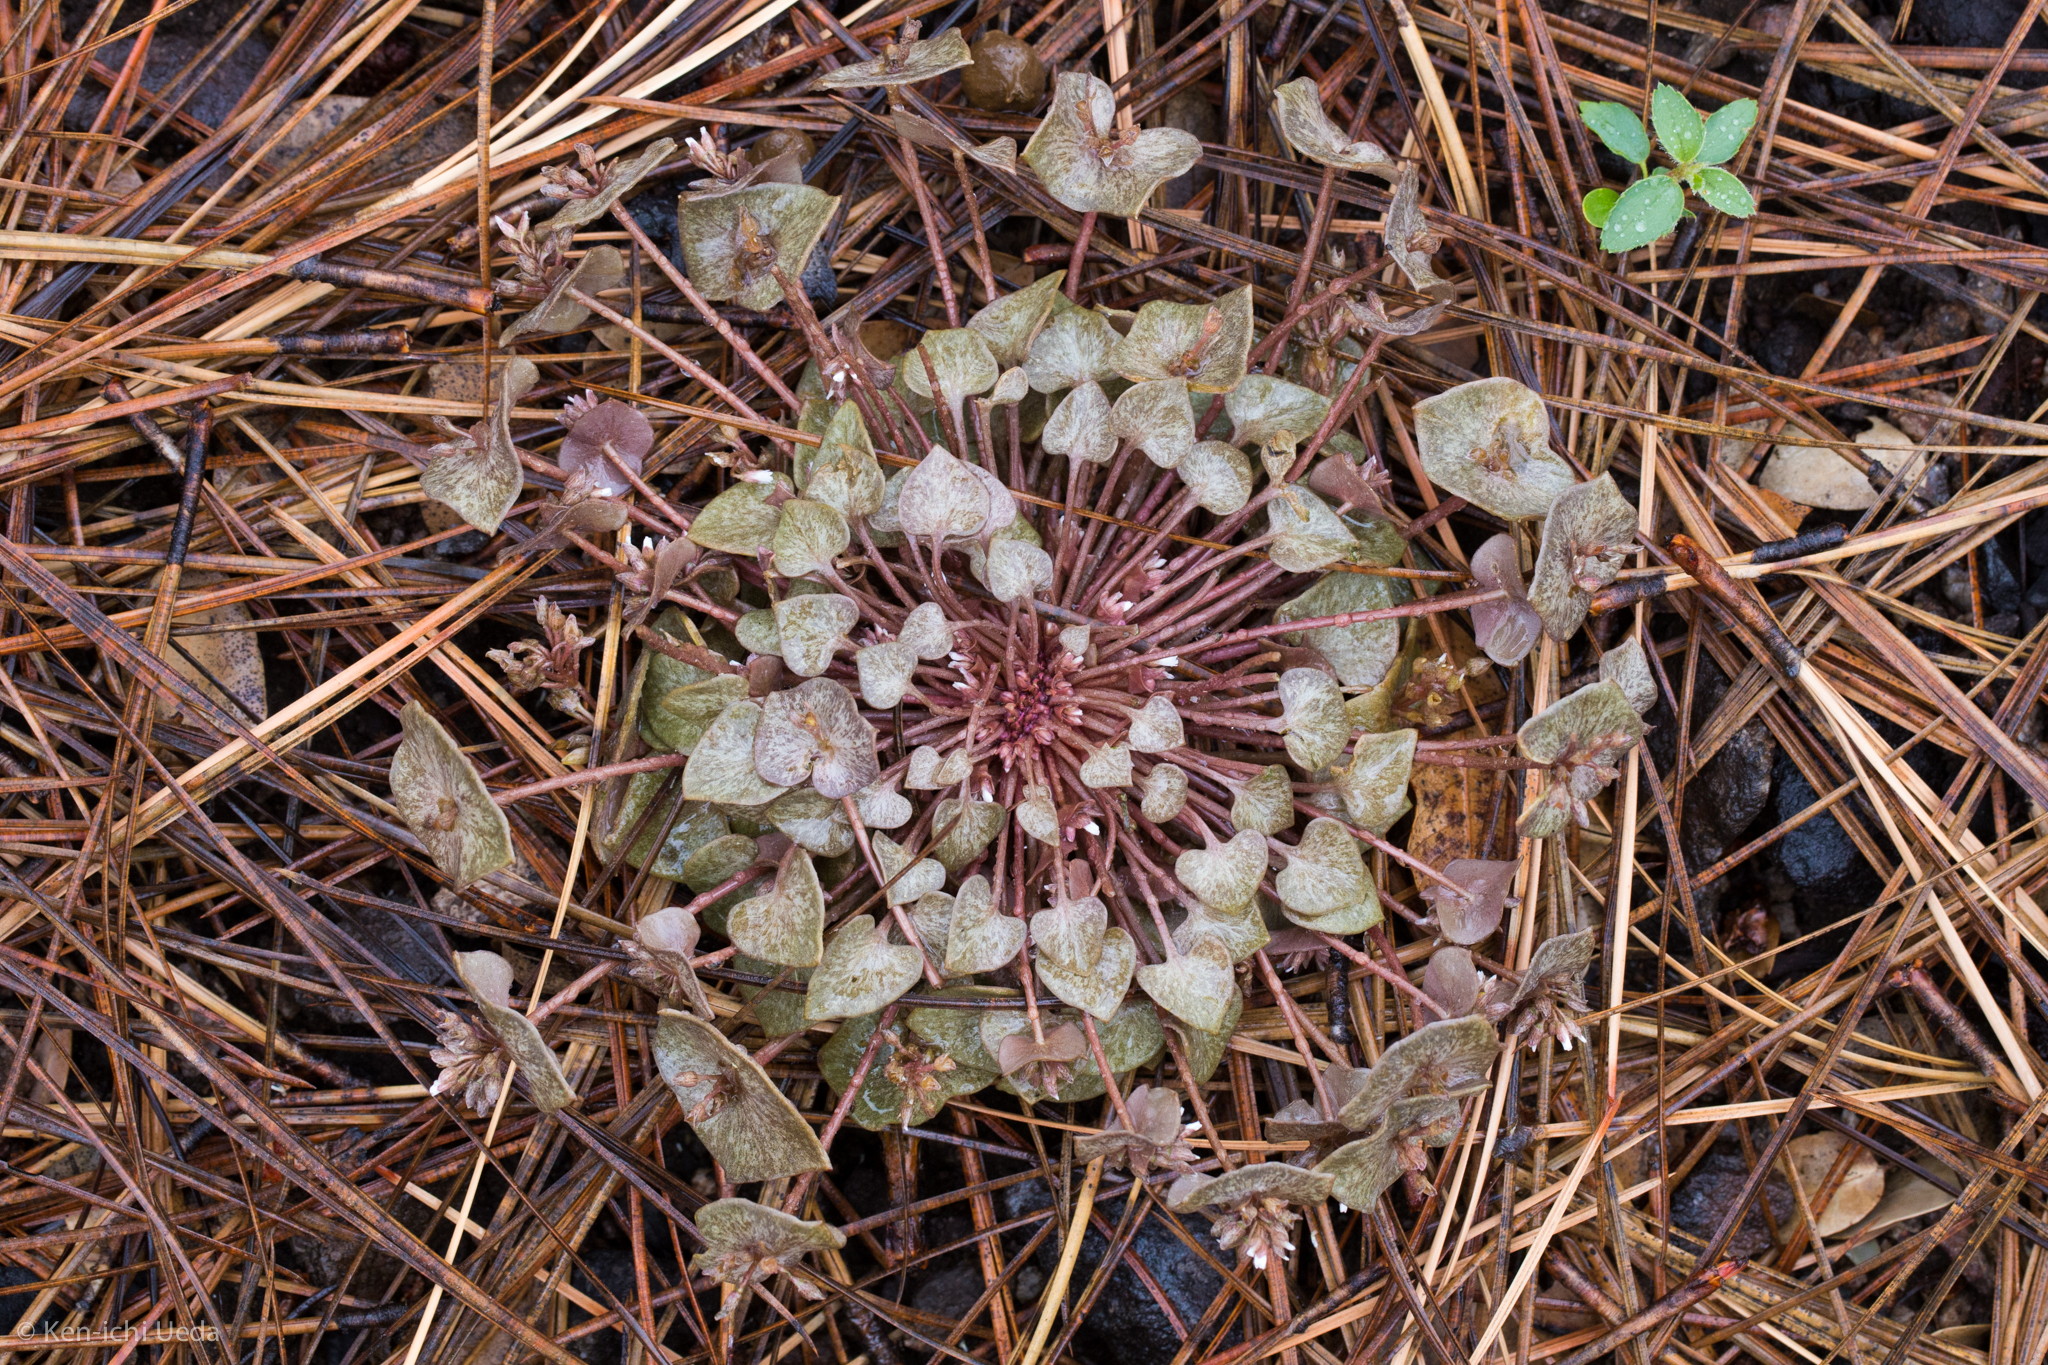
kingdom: Plantae
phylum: Tracheophyta
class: Magnoliopsida
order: Caryophyllales
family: Montiaceae
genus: Claytonia
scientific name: Claytonia rubra
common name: Erubescent miner's-lettuce
